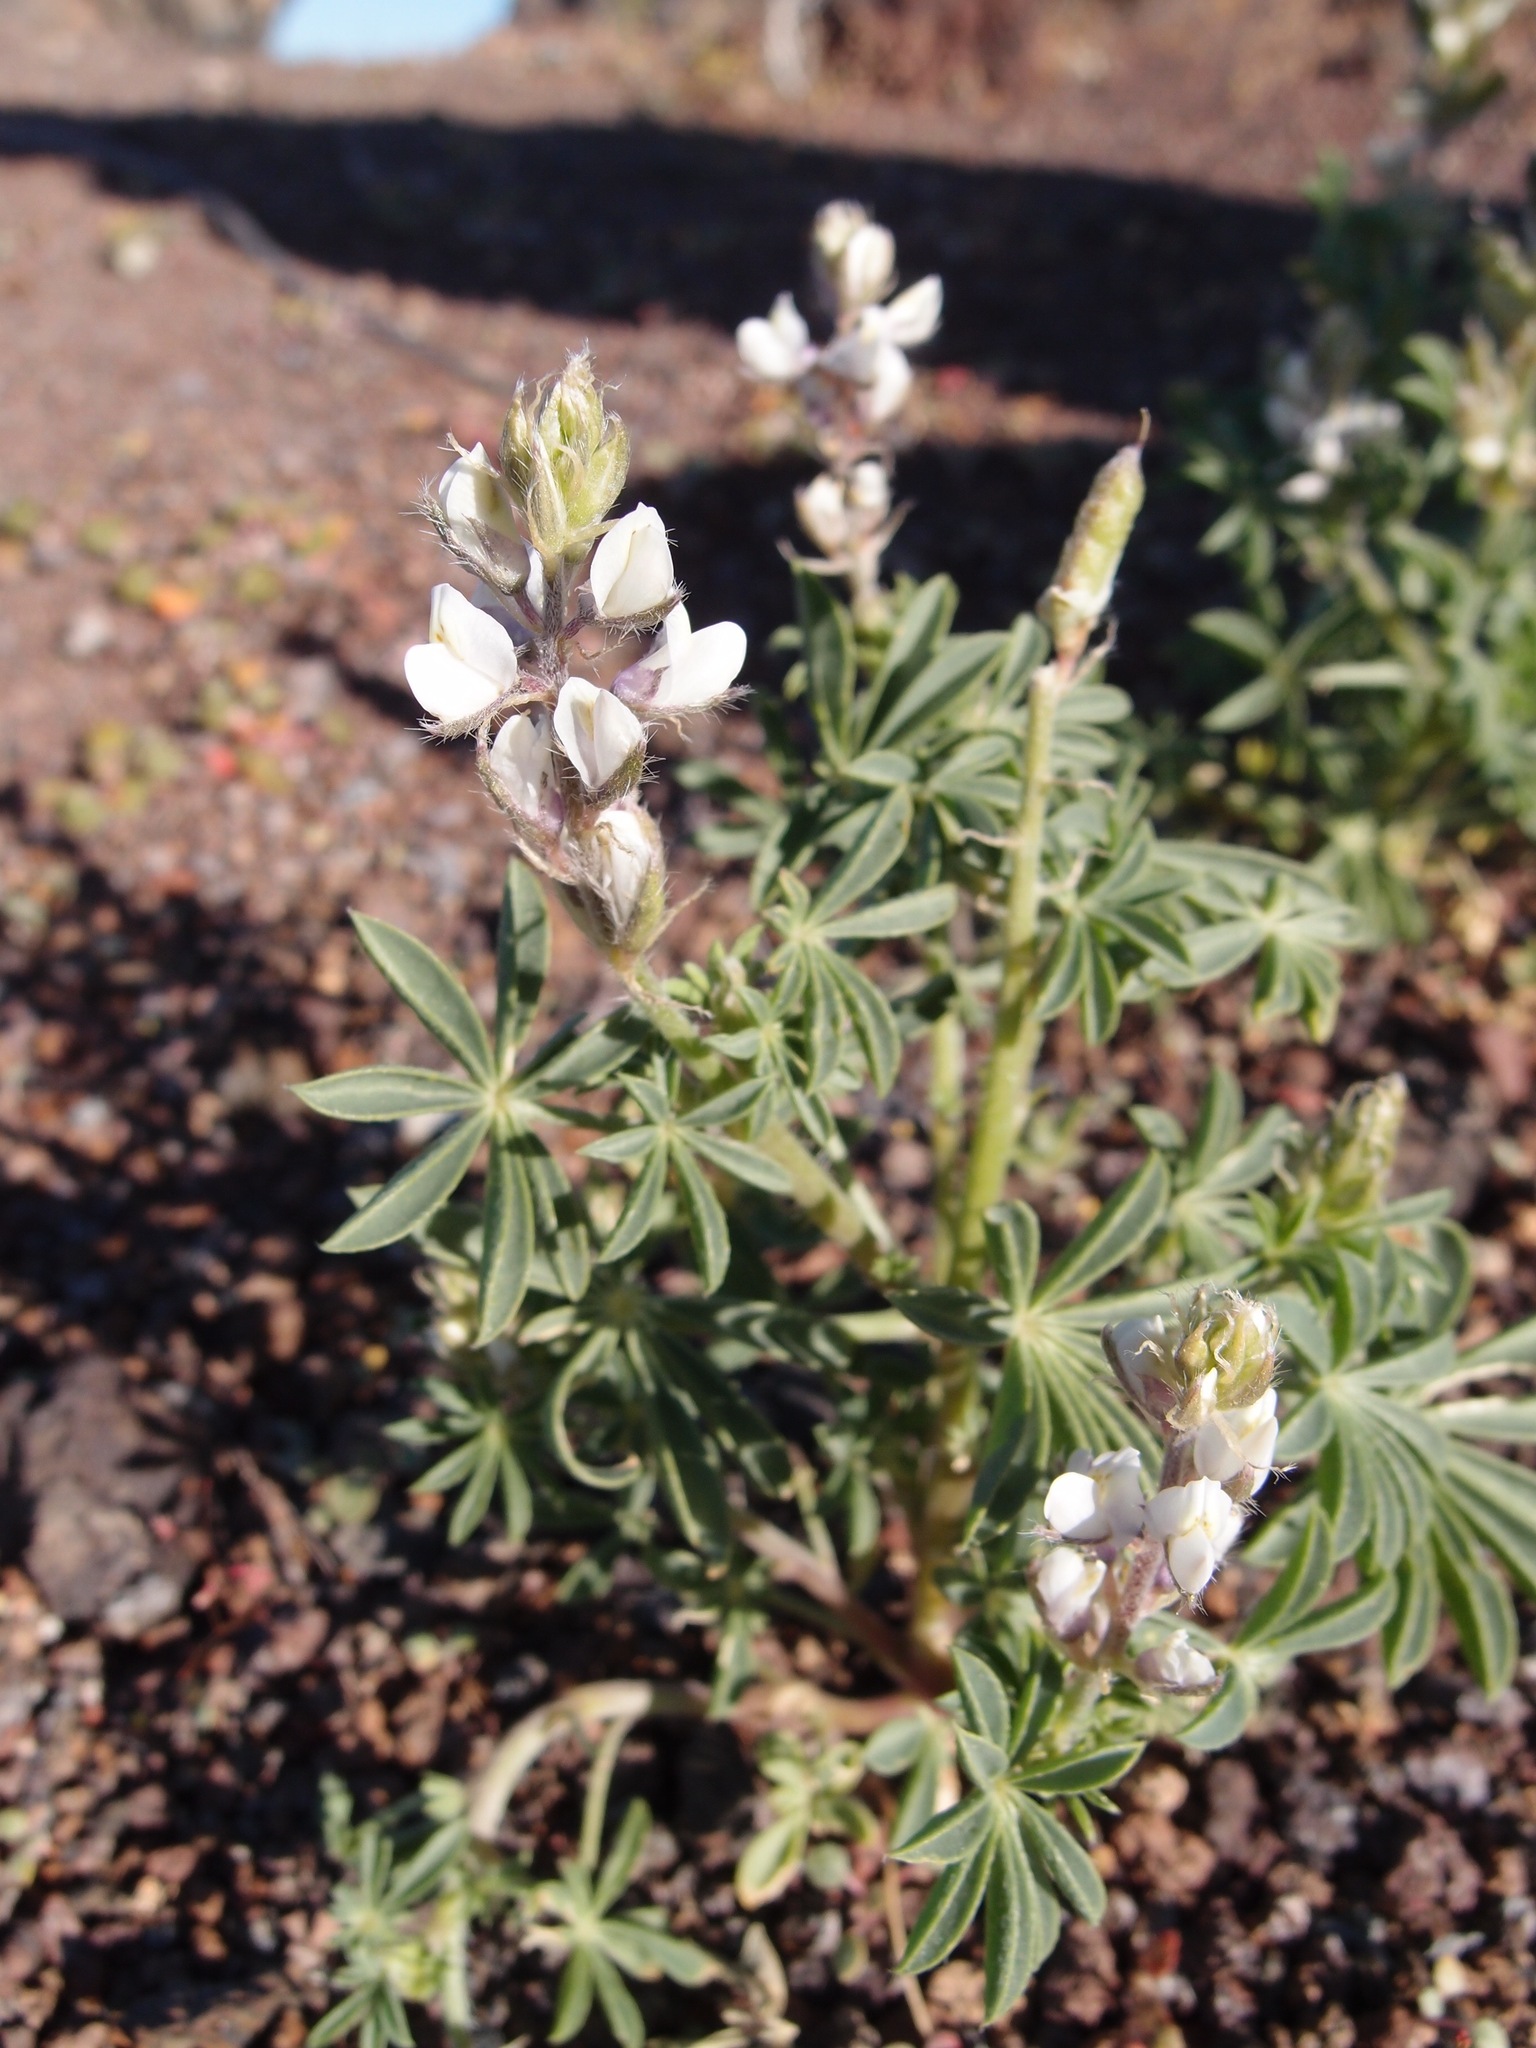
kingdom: Plantae
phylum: Tracheophyta
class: Magnoliopsida
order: Fabales
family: Fabaceae
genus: Lupinus
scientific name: Lupinus arizonicus
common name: Arizona lupine
